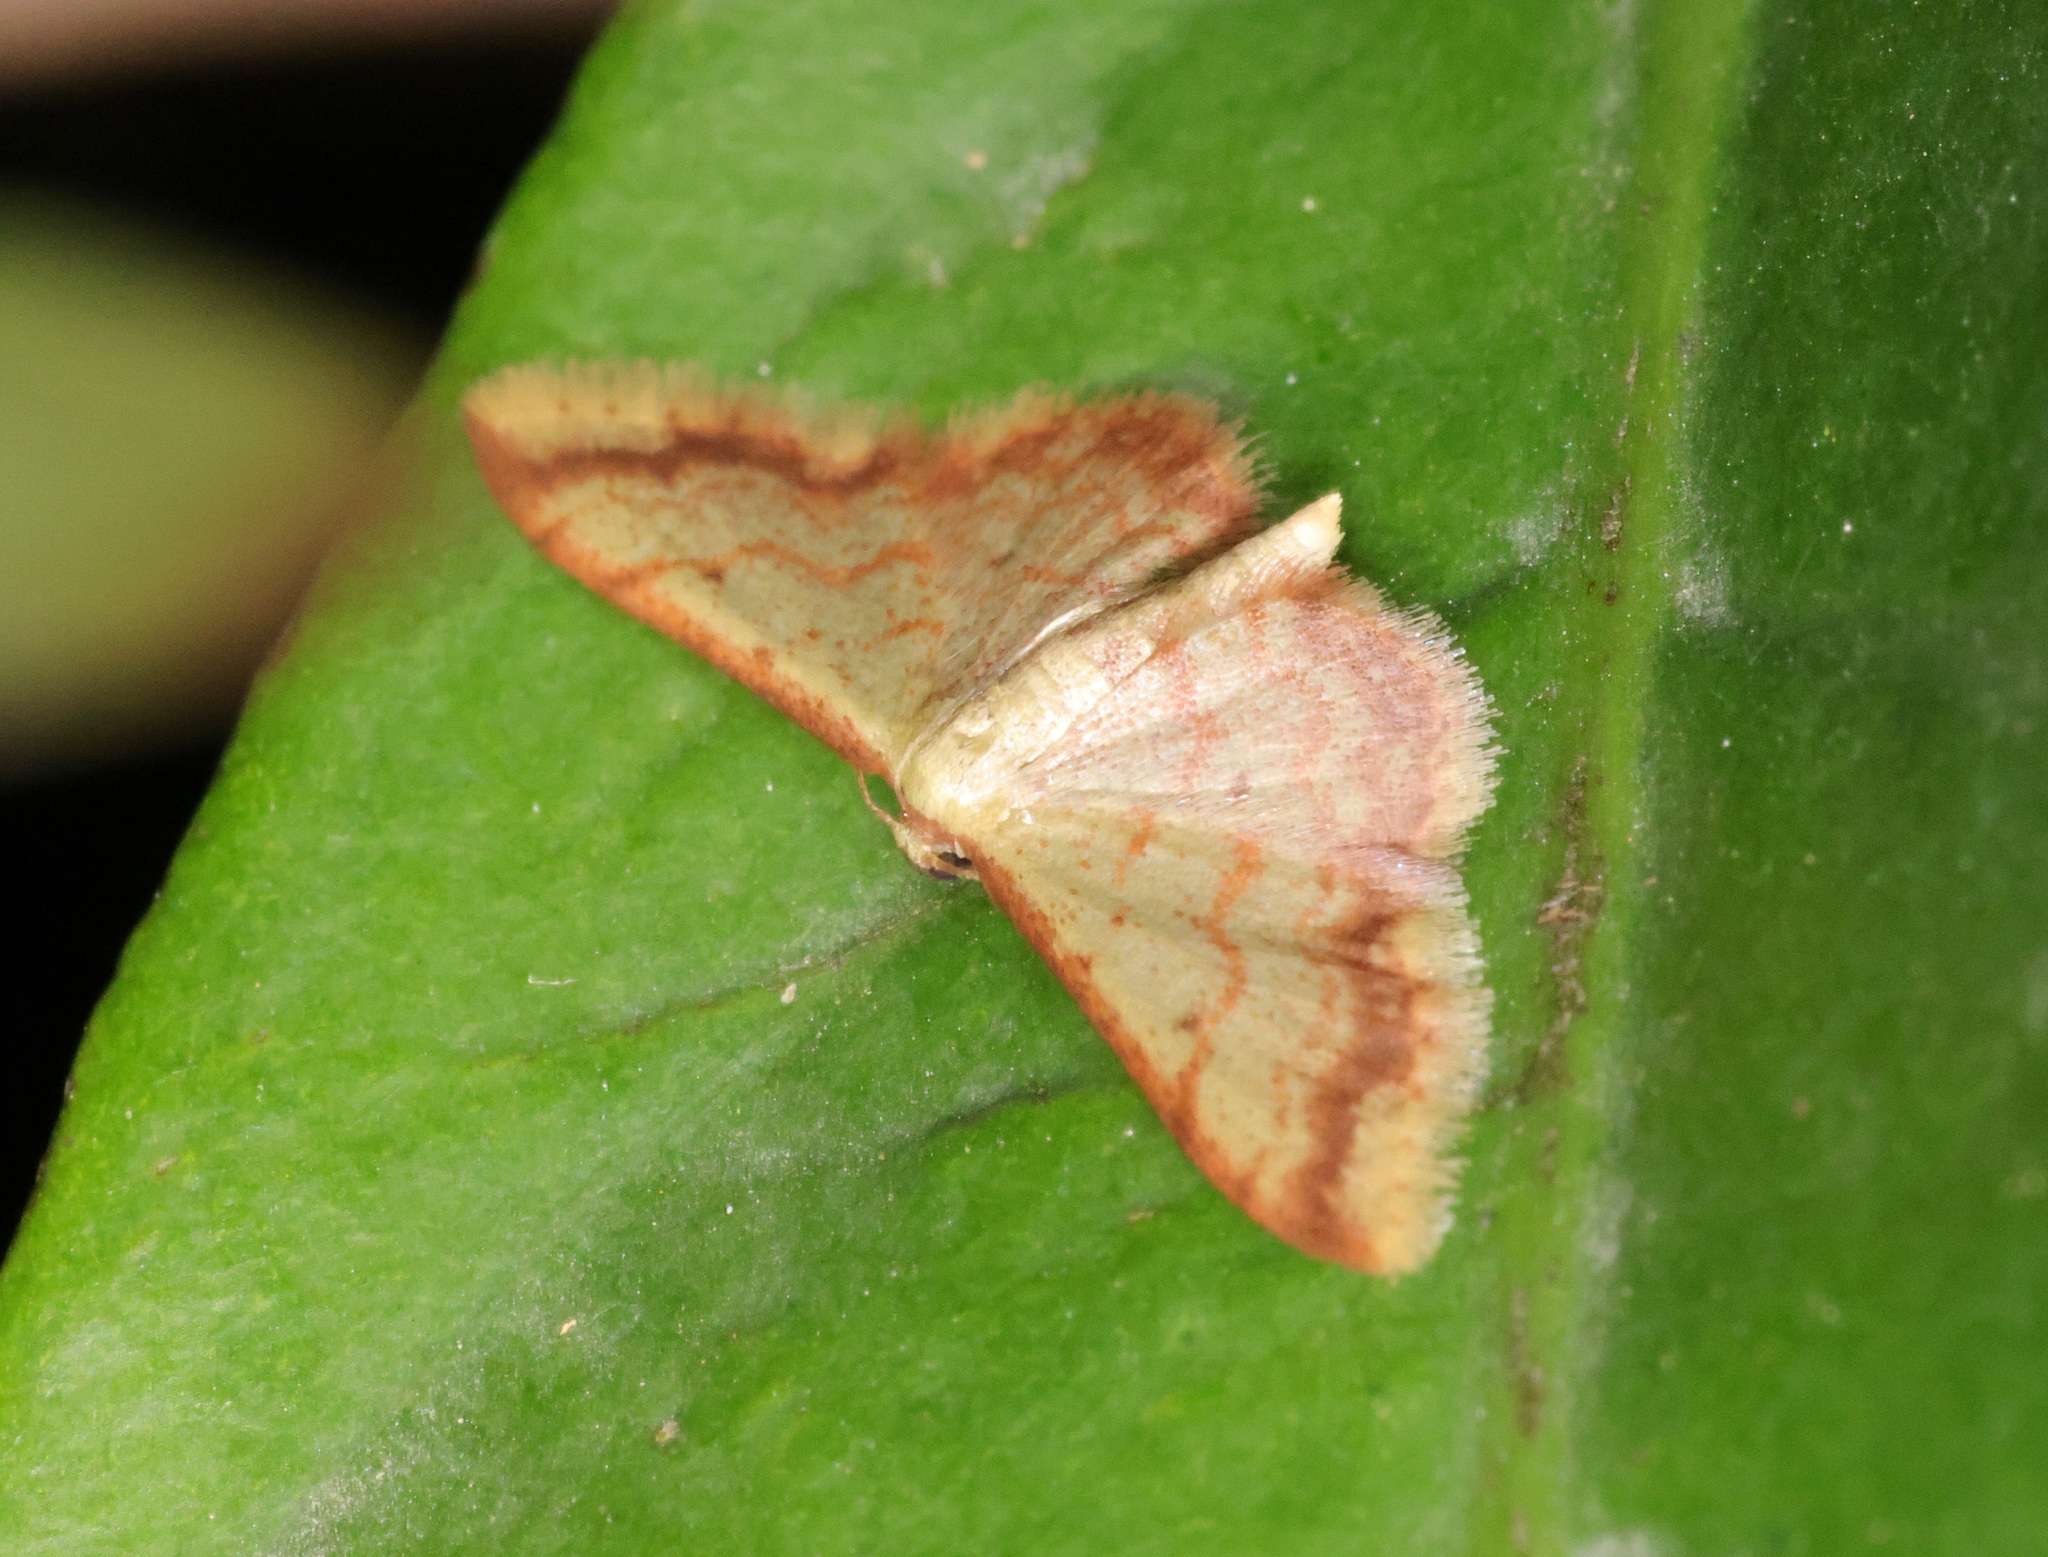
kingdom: Animalia
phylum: Arthropoda
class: Insecta
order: Lepidoptera
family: Geometridae
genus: Idaea
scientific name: Idaea impexa
